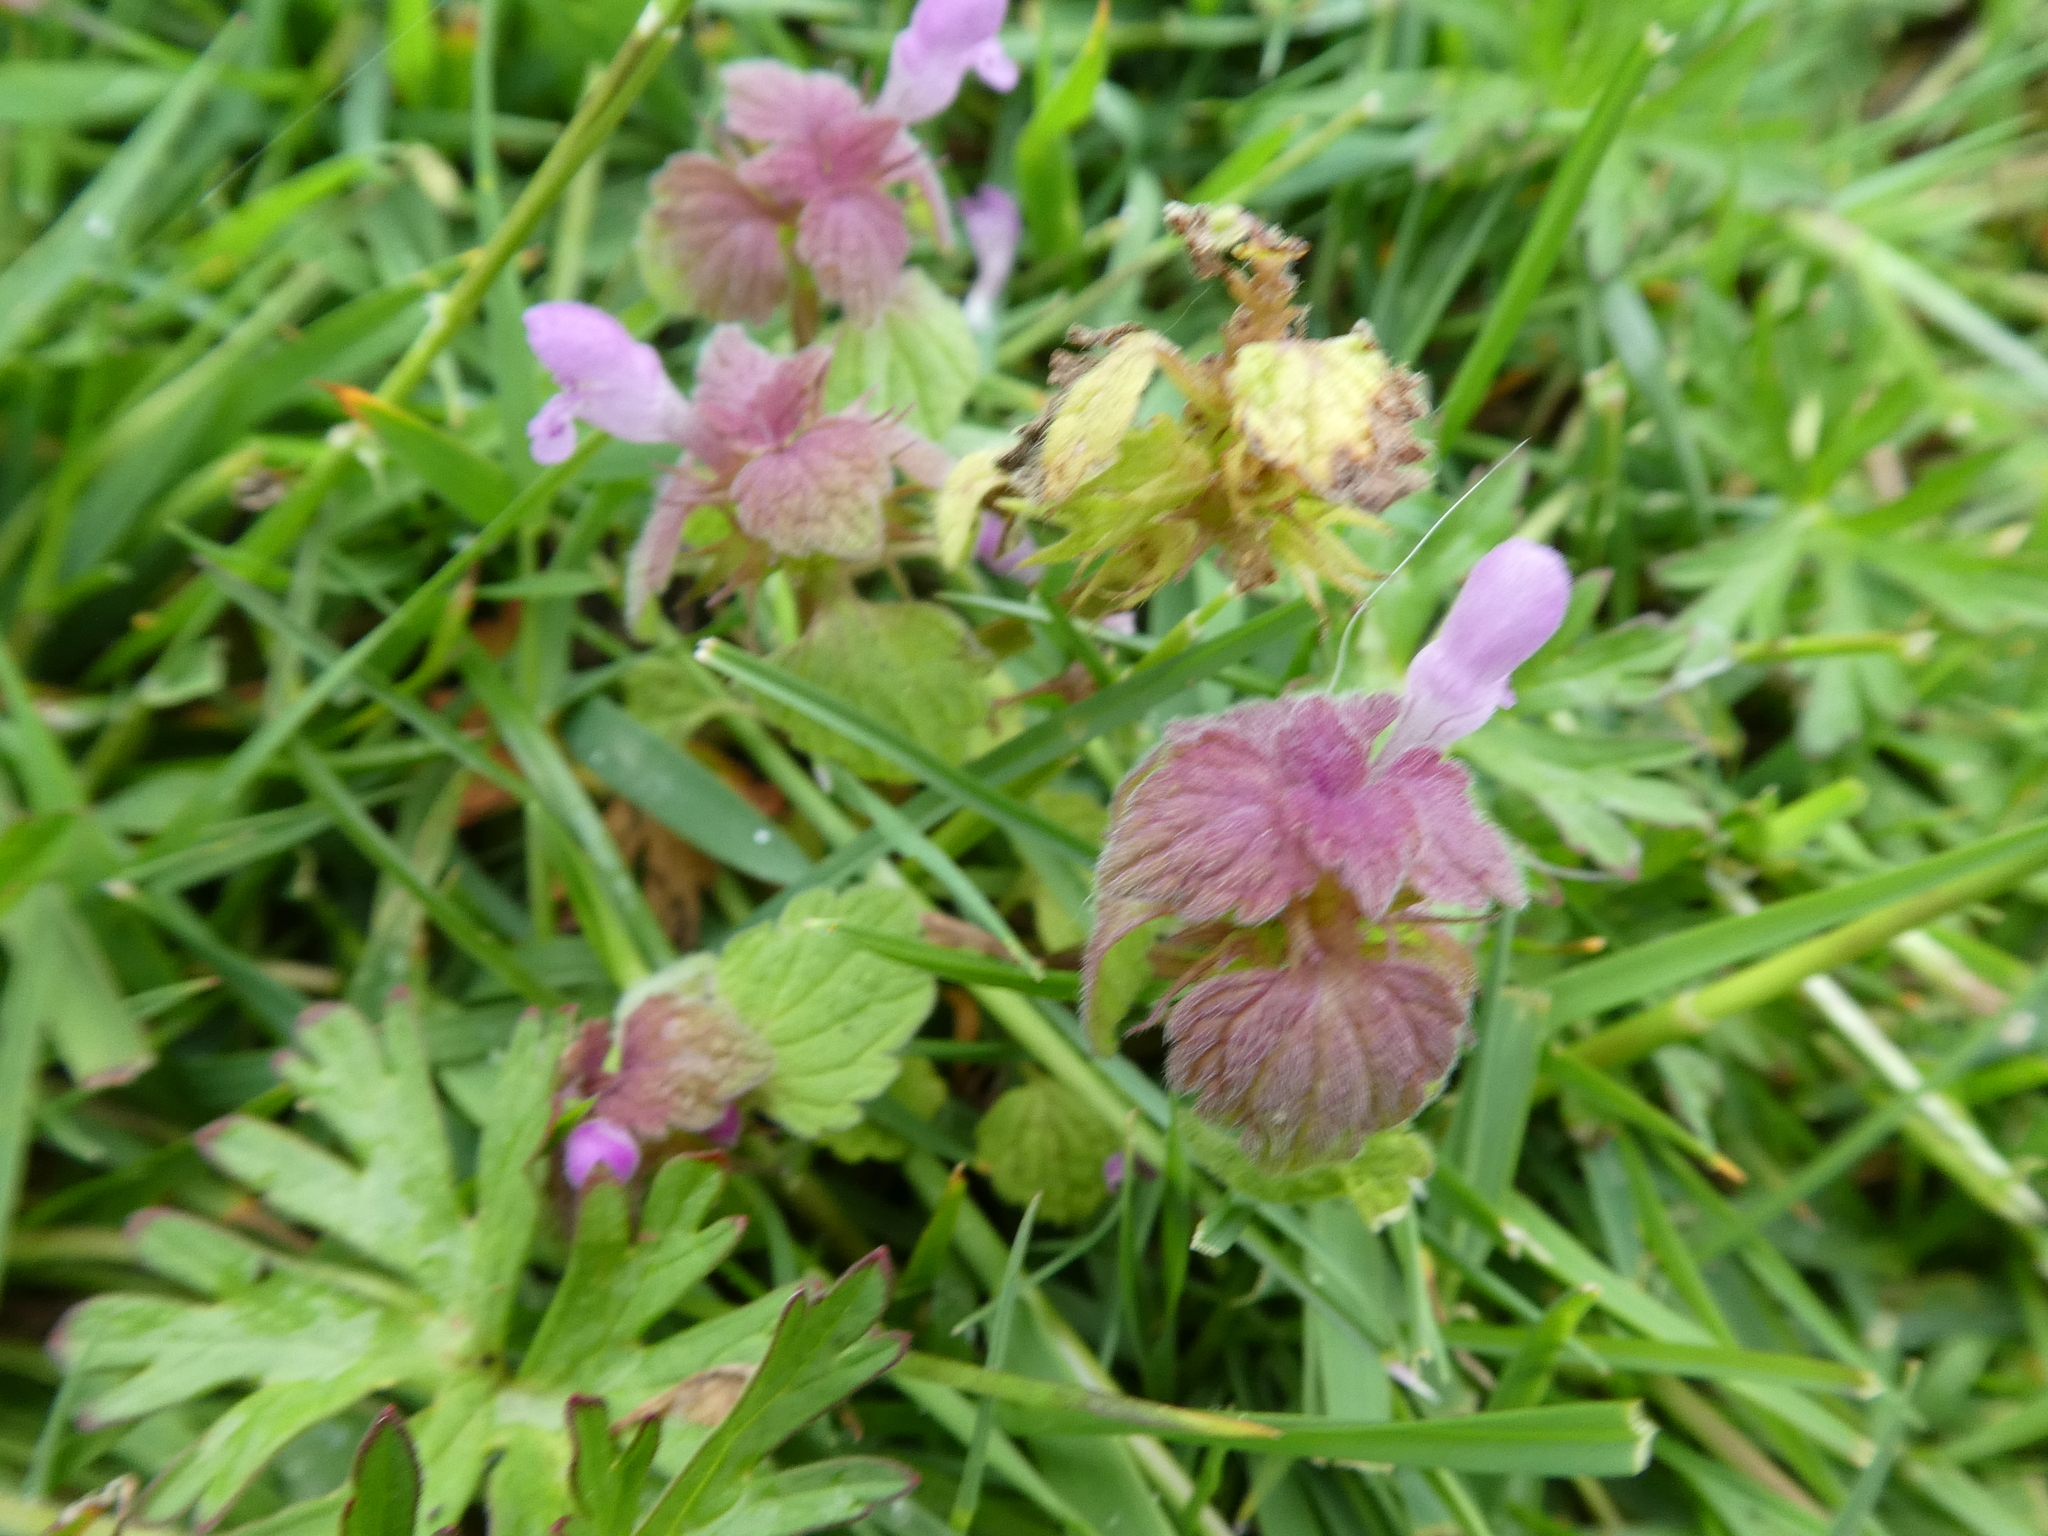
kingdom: Plantae
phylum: Tracheophyta
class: Magnoliopsida
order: Lamiales
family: Lamiaceae
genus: Lamium
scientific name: Lamium purpureum
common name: Red dead-nettle
